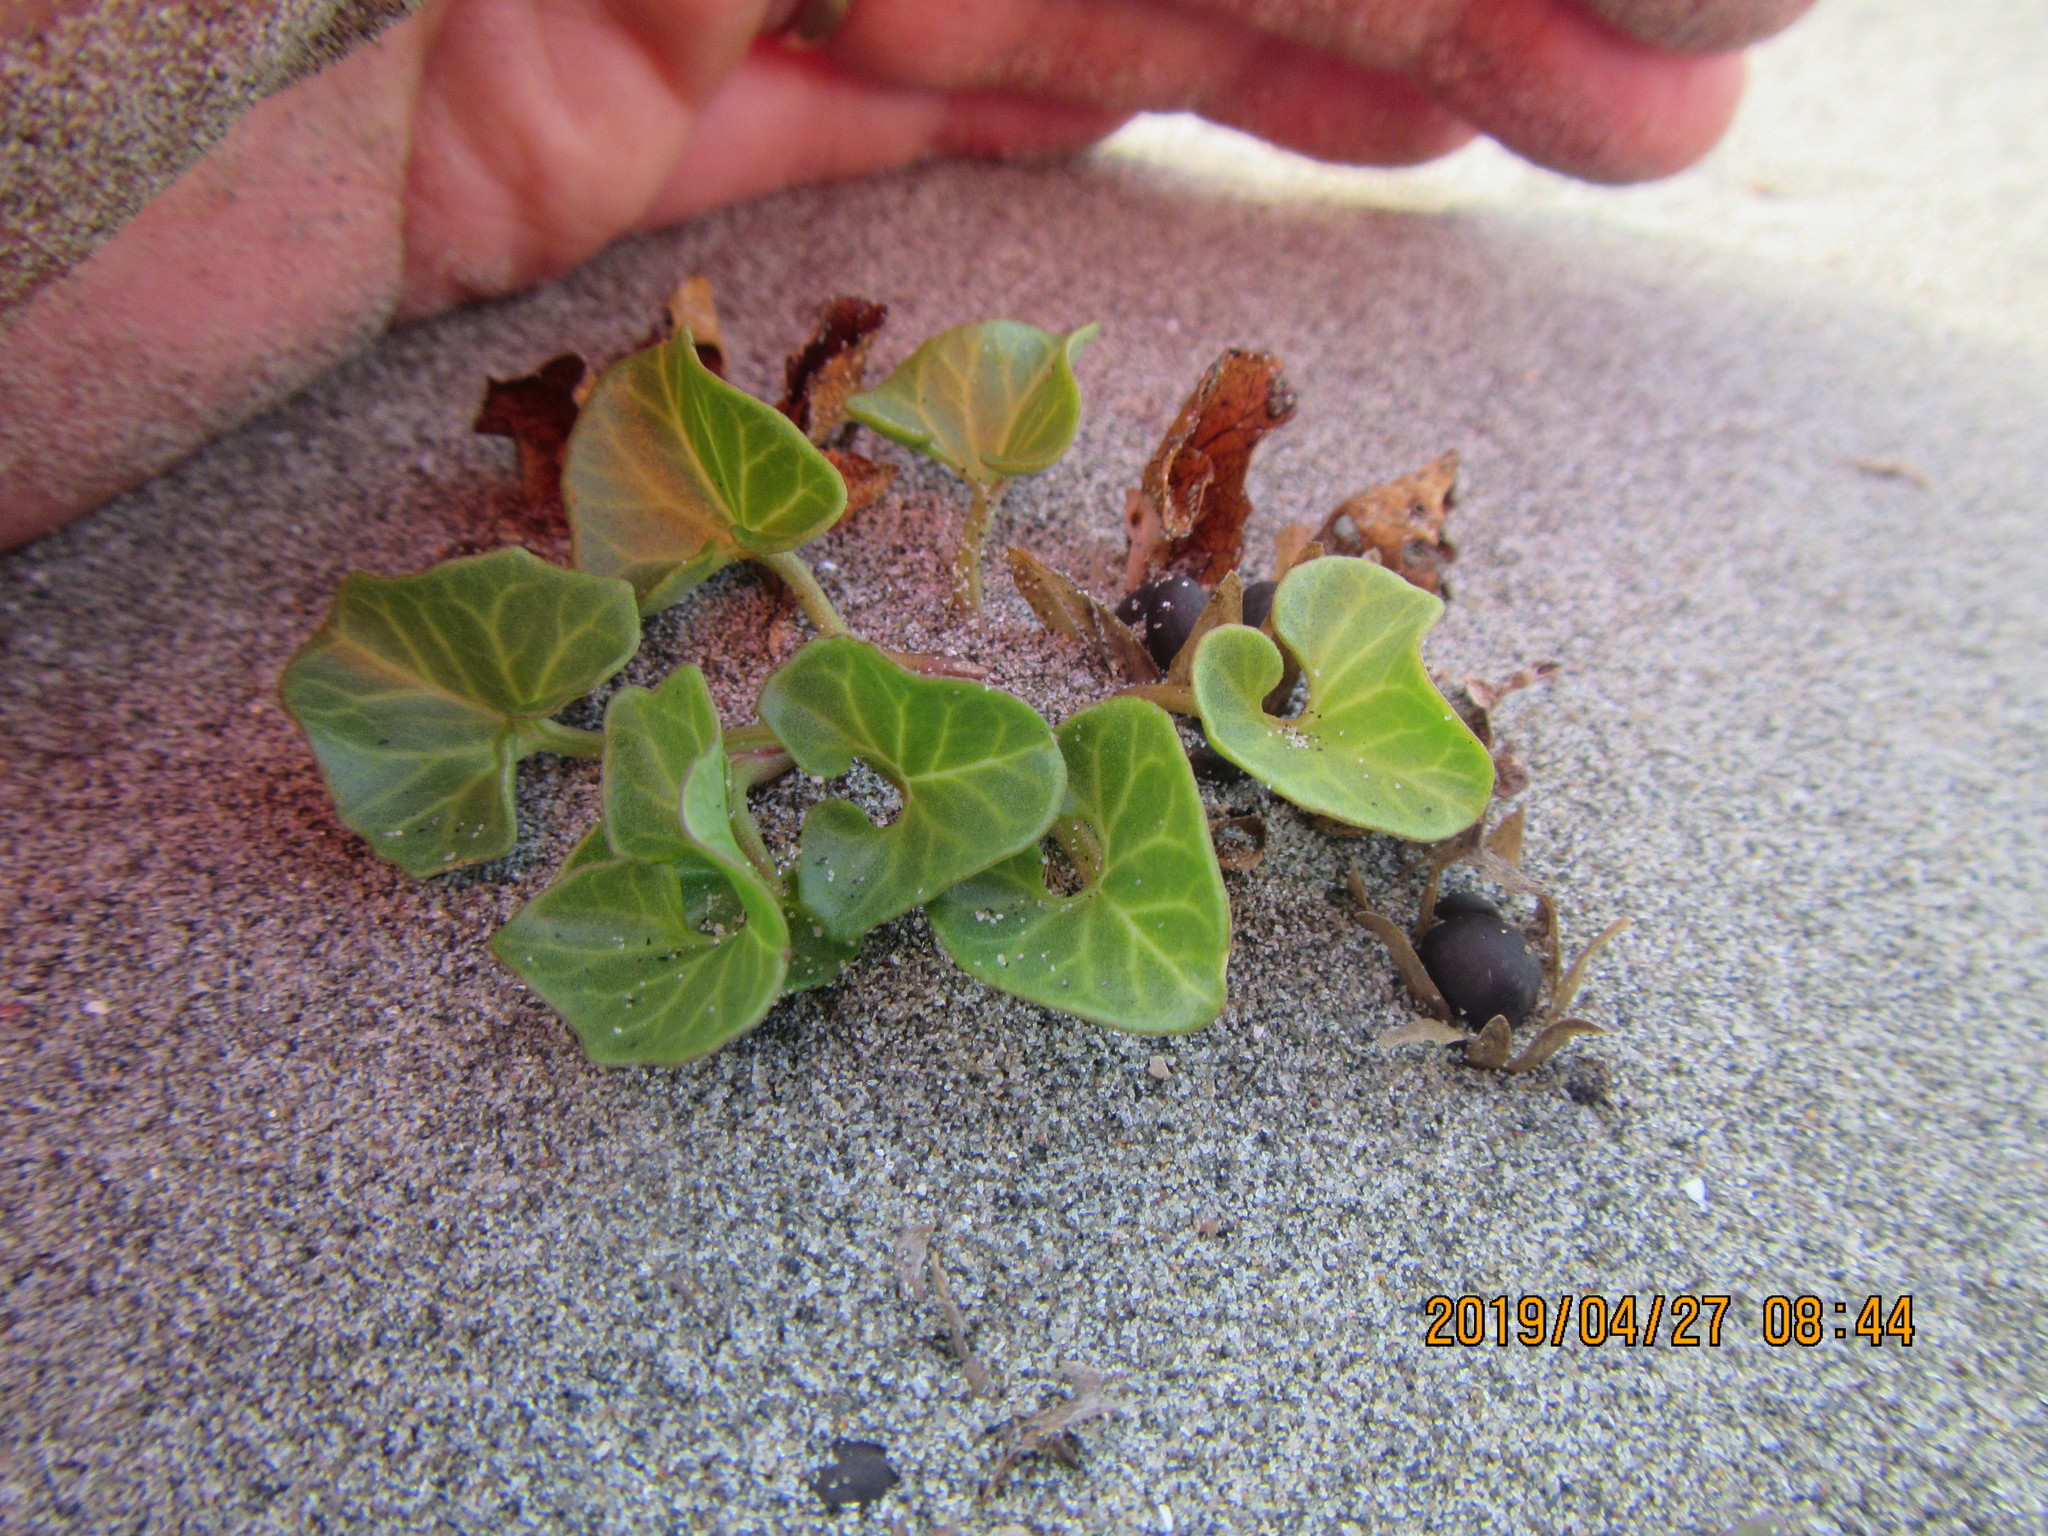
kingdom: Plantae
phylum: Tracheophyta
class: Magnoliopsida
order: Solanales
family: Convolvulaceae
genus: Calystegia
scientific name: Calystegia soldanella
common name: Sea bindweed
